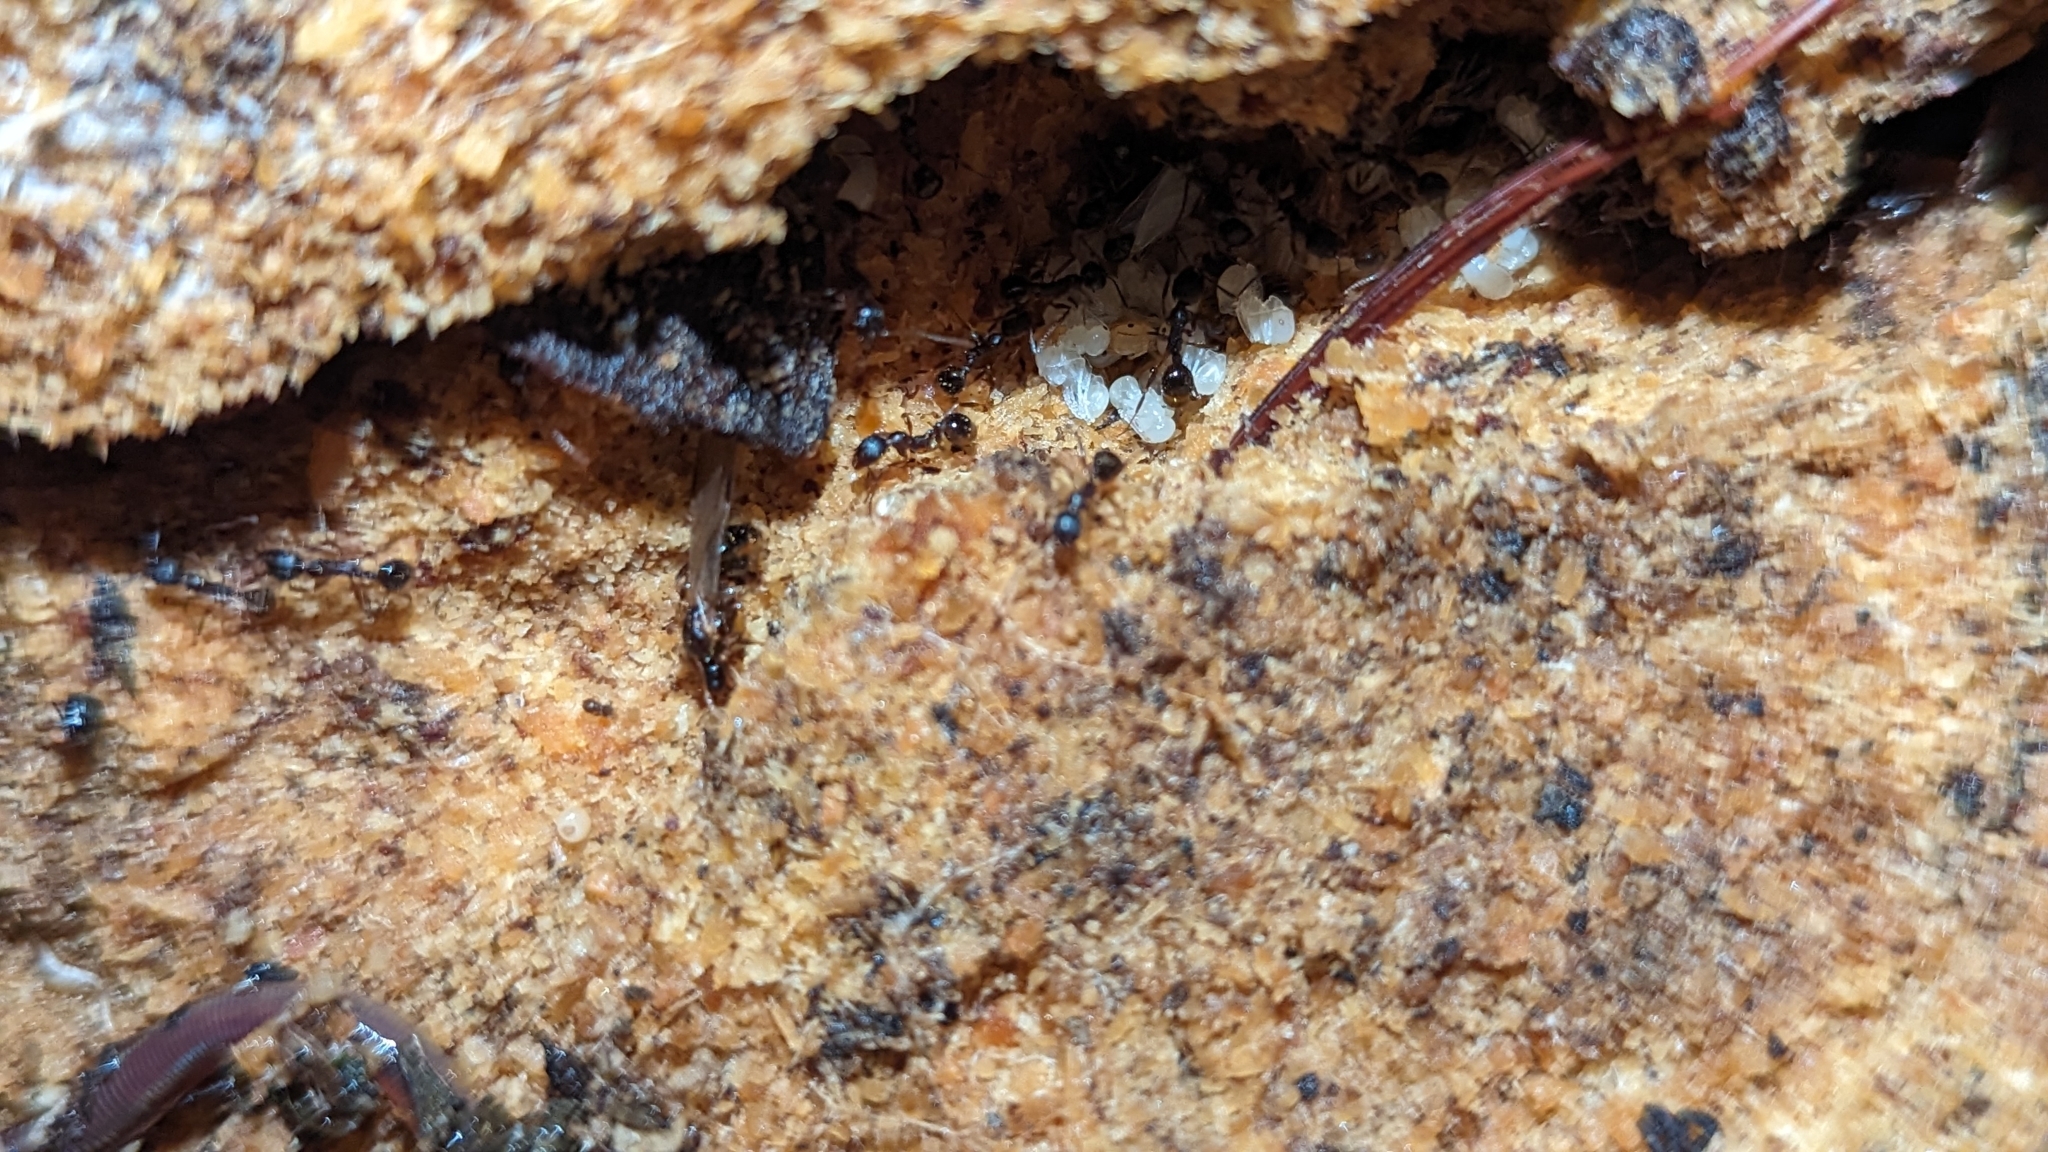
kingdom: Animalia
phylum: Arthropoda
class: Insecta
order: Hymenoptera
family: Formicidae
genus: Aphaenogaster
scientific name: Aphaenogaster picea
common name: Pitch-black collared ant
